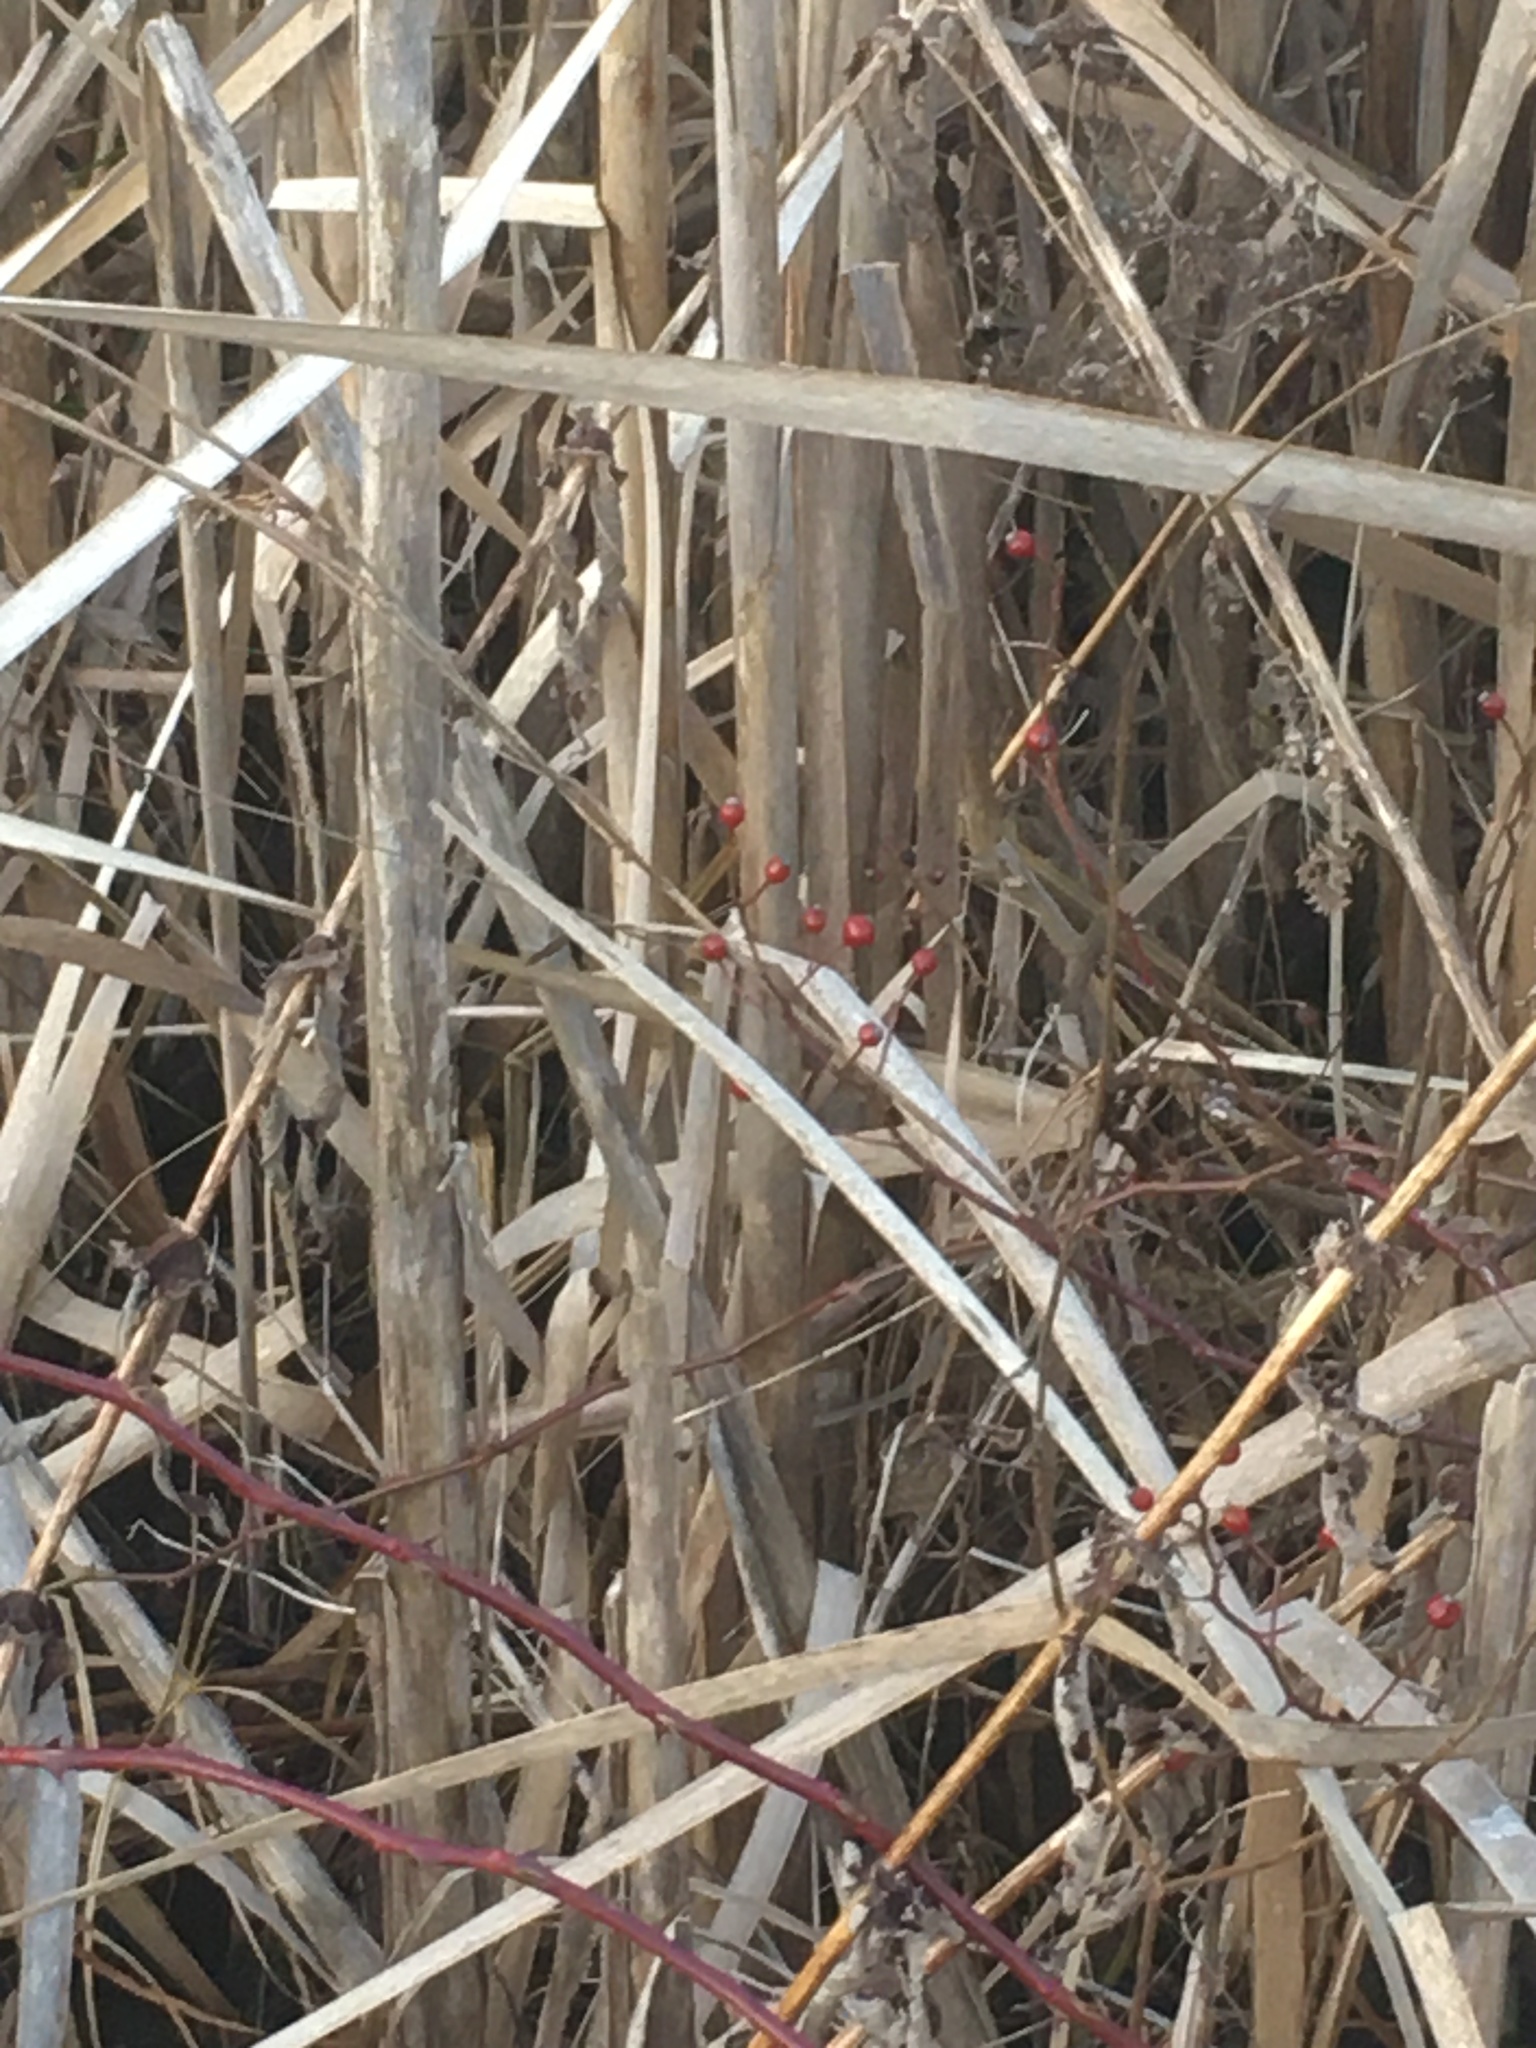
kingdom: Plantae
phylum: Tracheophyta
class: Magnoliopsida
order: Rosales
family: Rosaceae
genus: Rosa
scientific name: Rosa multiflora
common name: Multiflora rose
